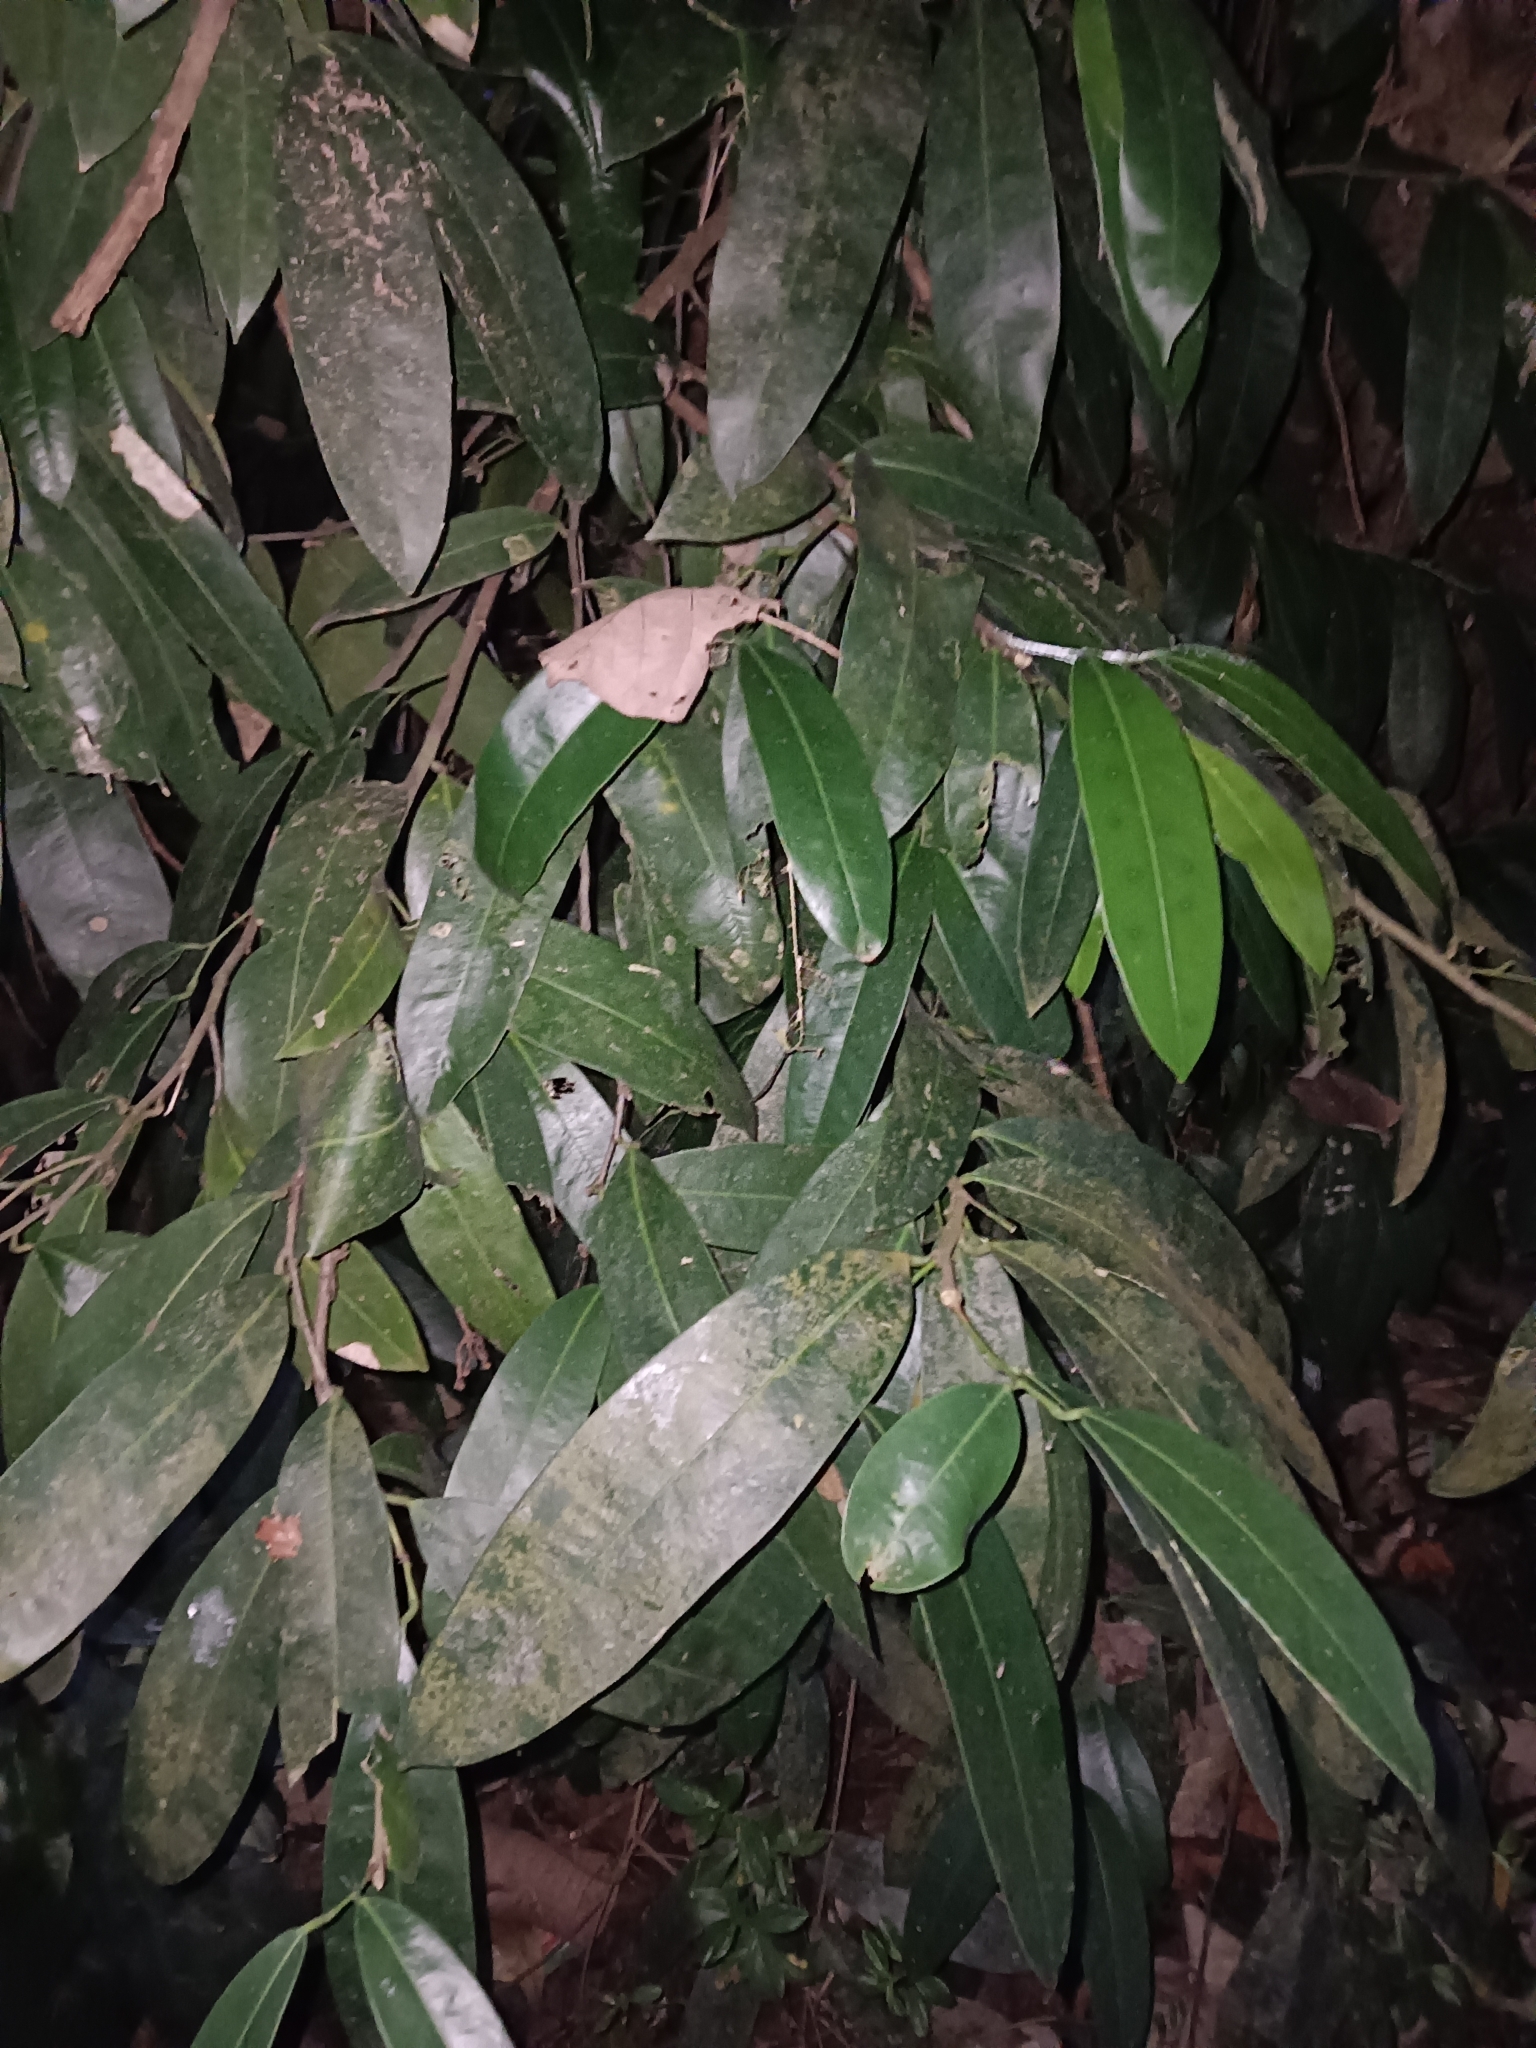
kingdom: Plantae
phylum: Tracheophyta
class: Magnoliopsida
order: Sapindales
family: Simaroubaceae
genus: Samadera
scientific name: Samadera indica
